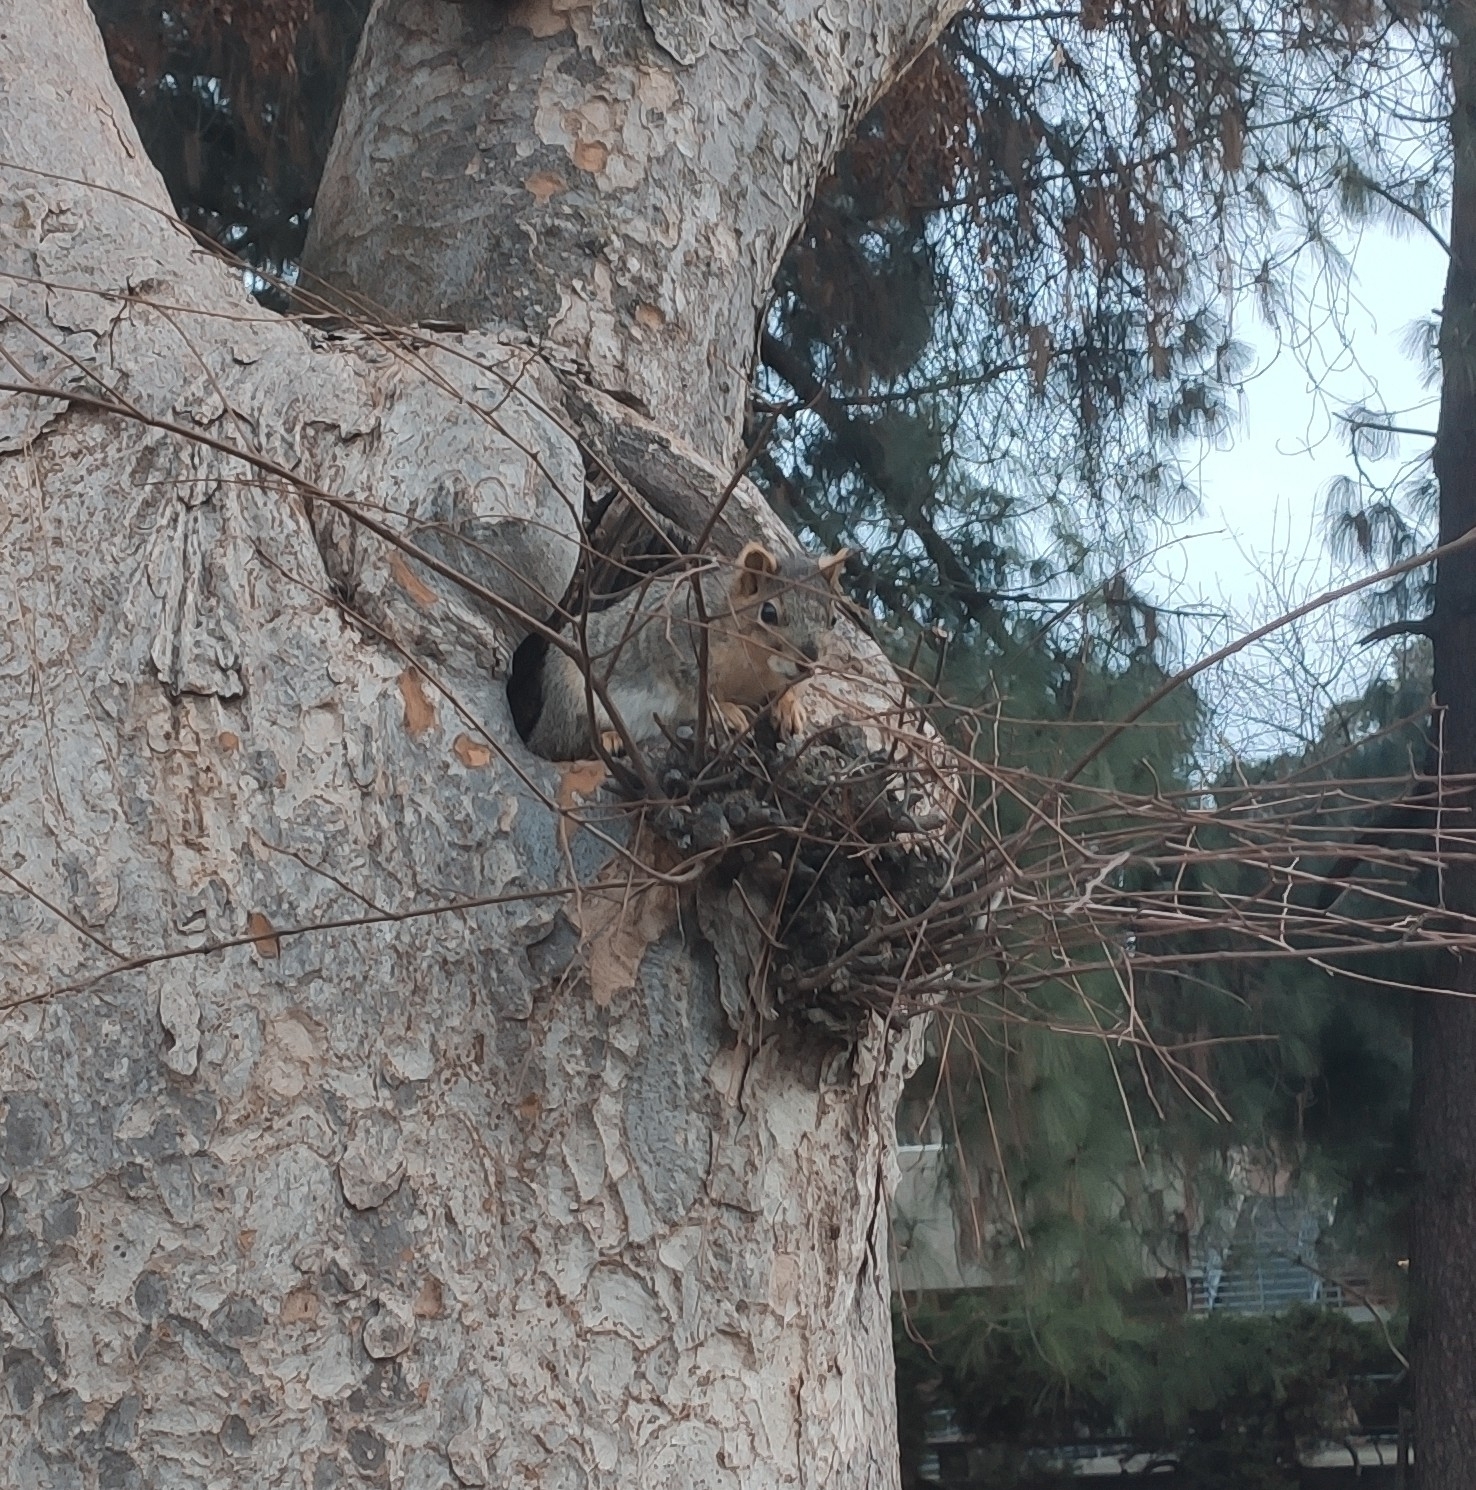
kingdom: Animalia
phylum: Chordata
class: Mammalia
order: Rodentia
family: Sciuridae
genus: Sciurus
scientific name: Sciurus niger
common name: Fox squirrel
